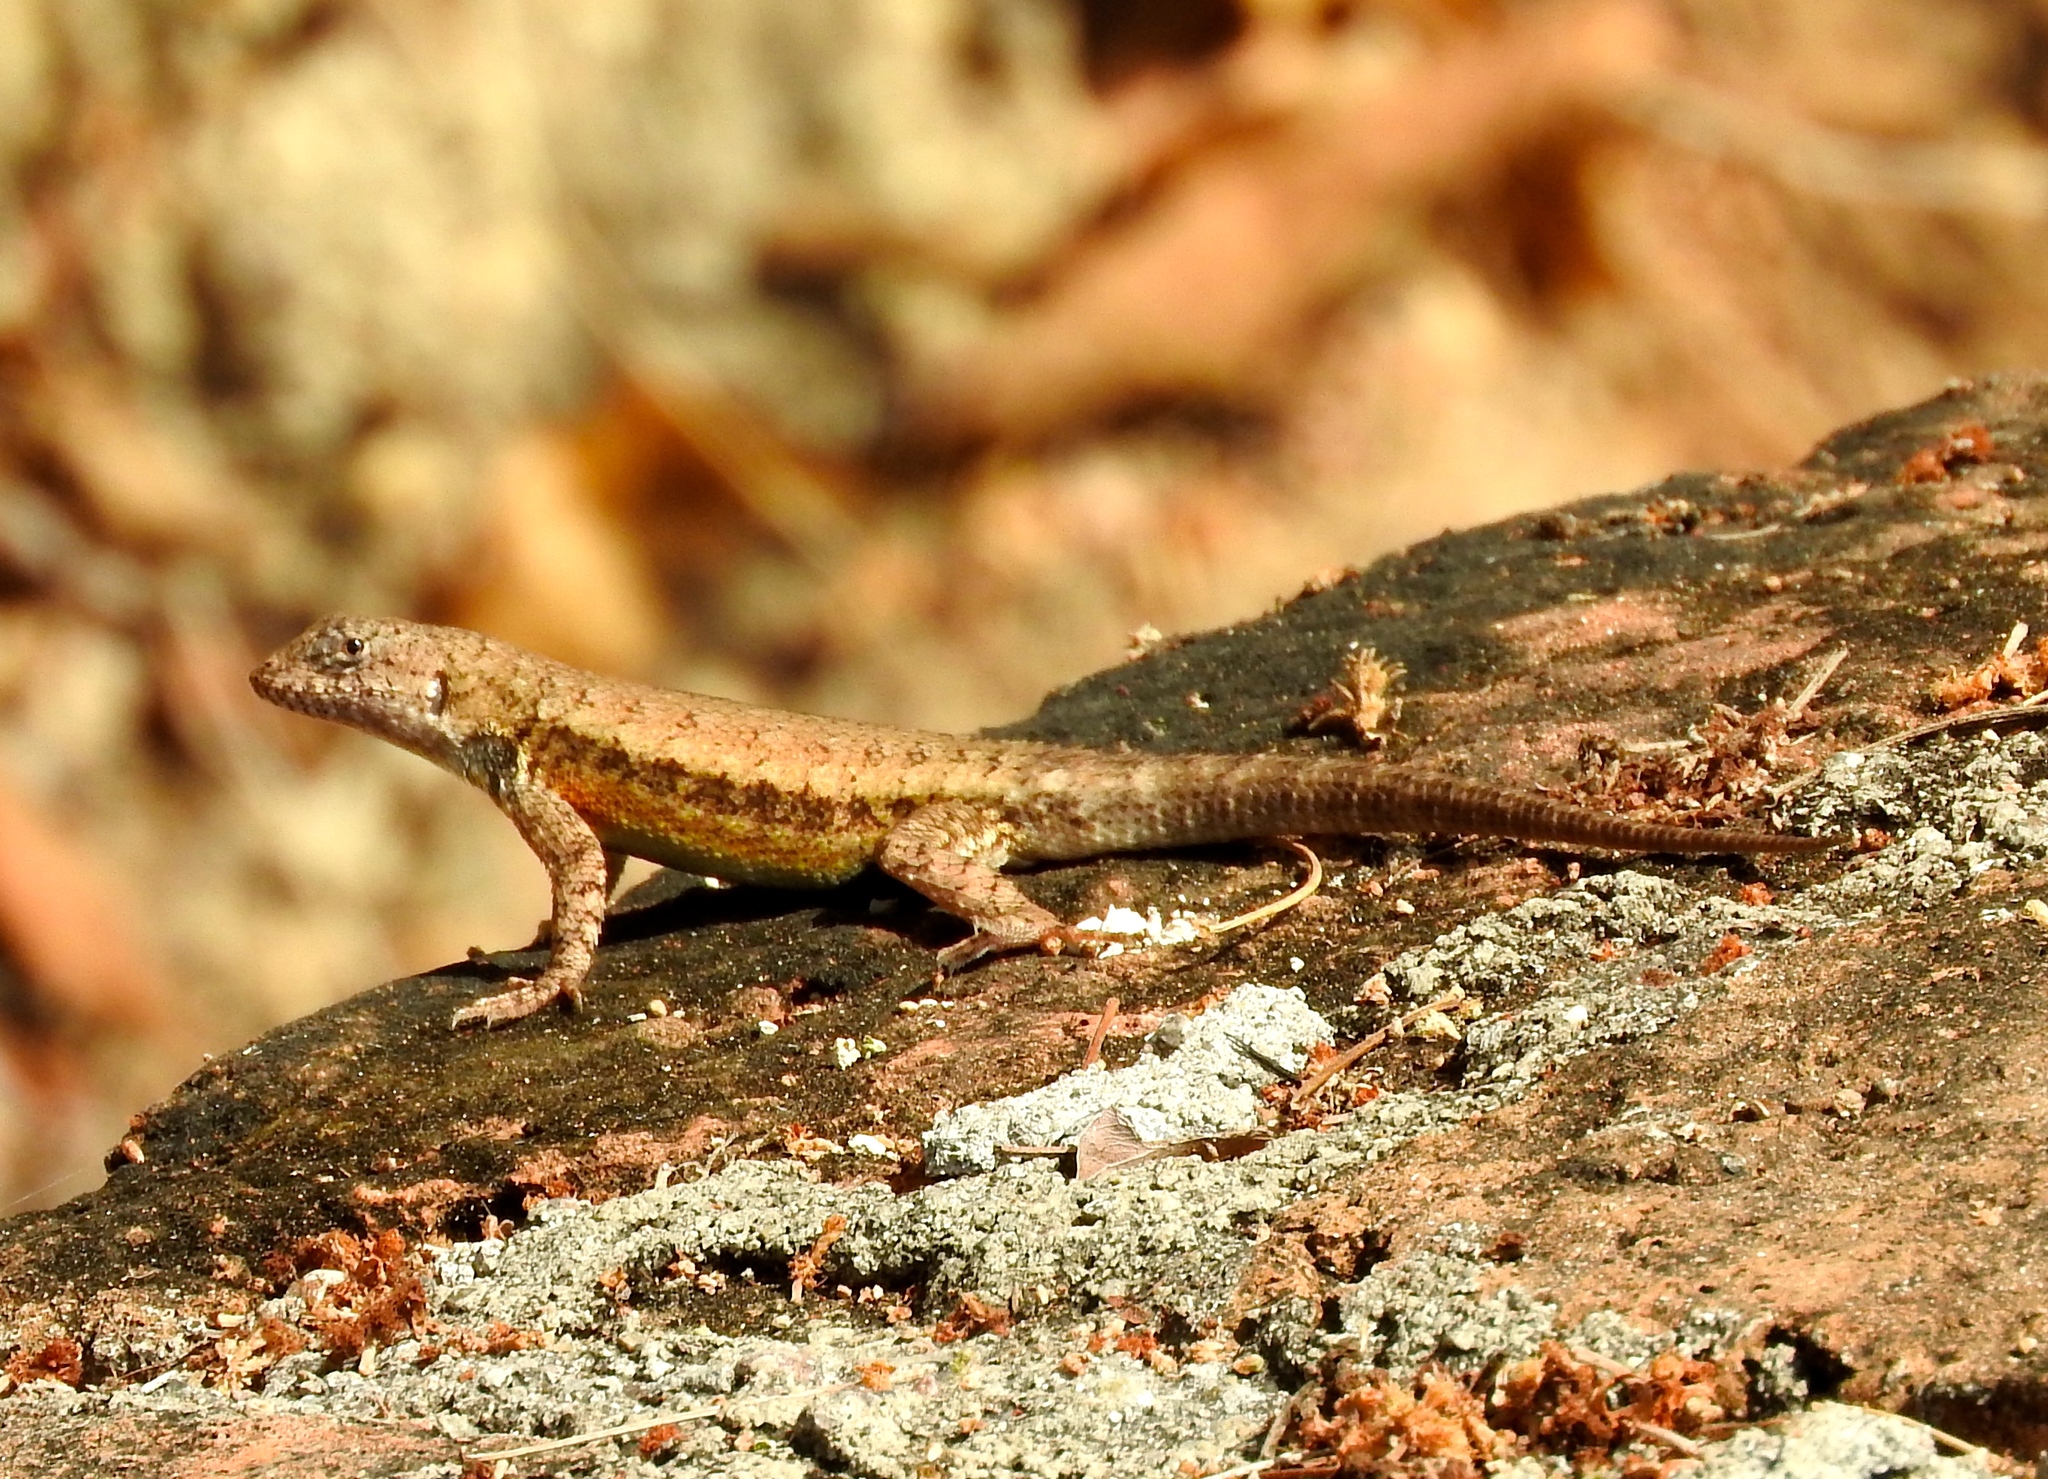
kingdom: Animalia
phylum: Chordata
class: Squamata
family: Phrynosomatidae
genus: Sceloporus
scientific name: Sceloporus nelsoni
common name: Nelson's spiny lizard
